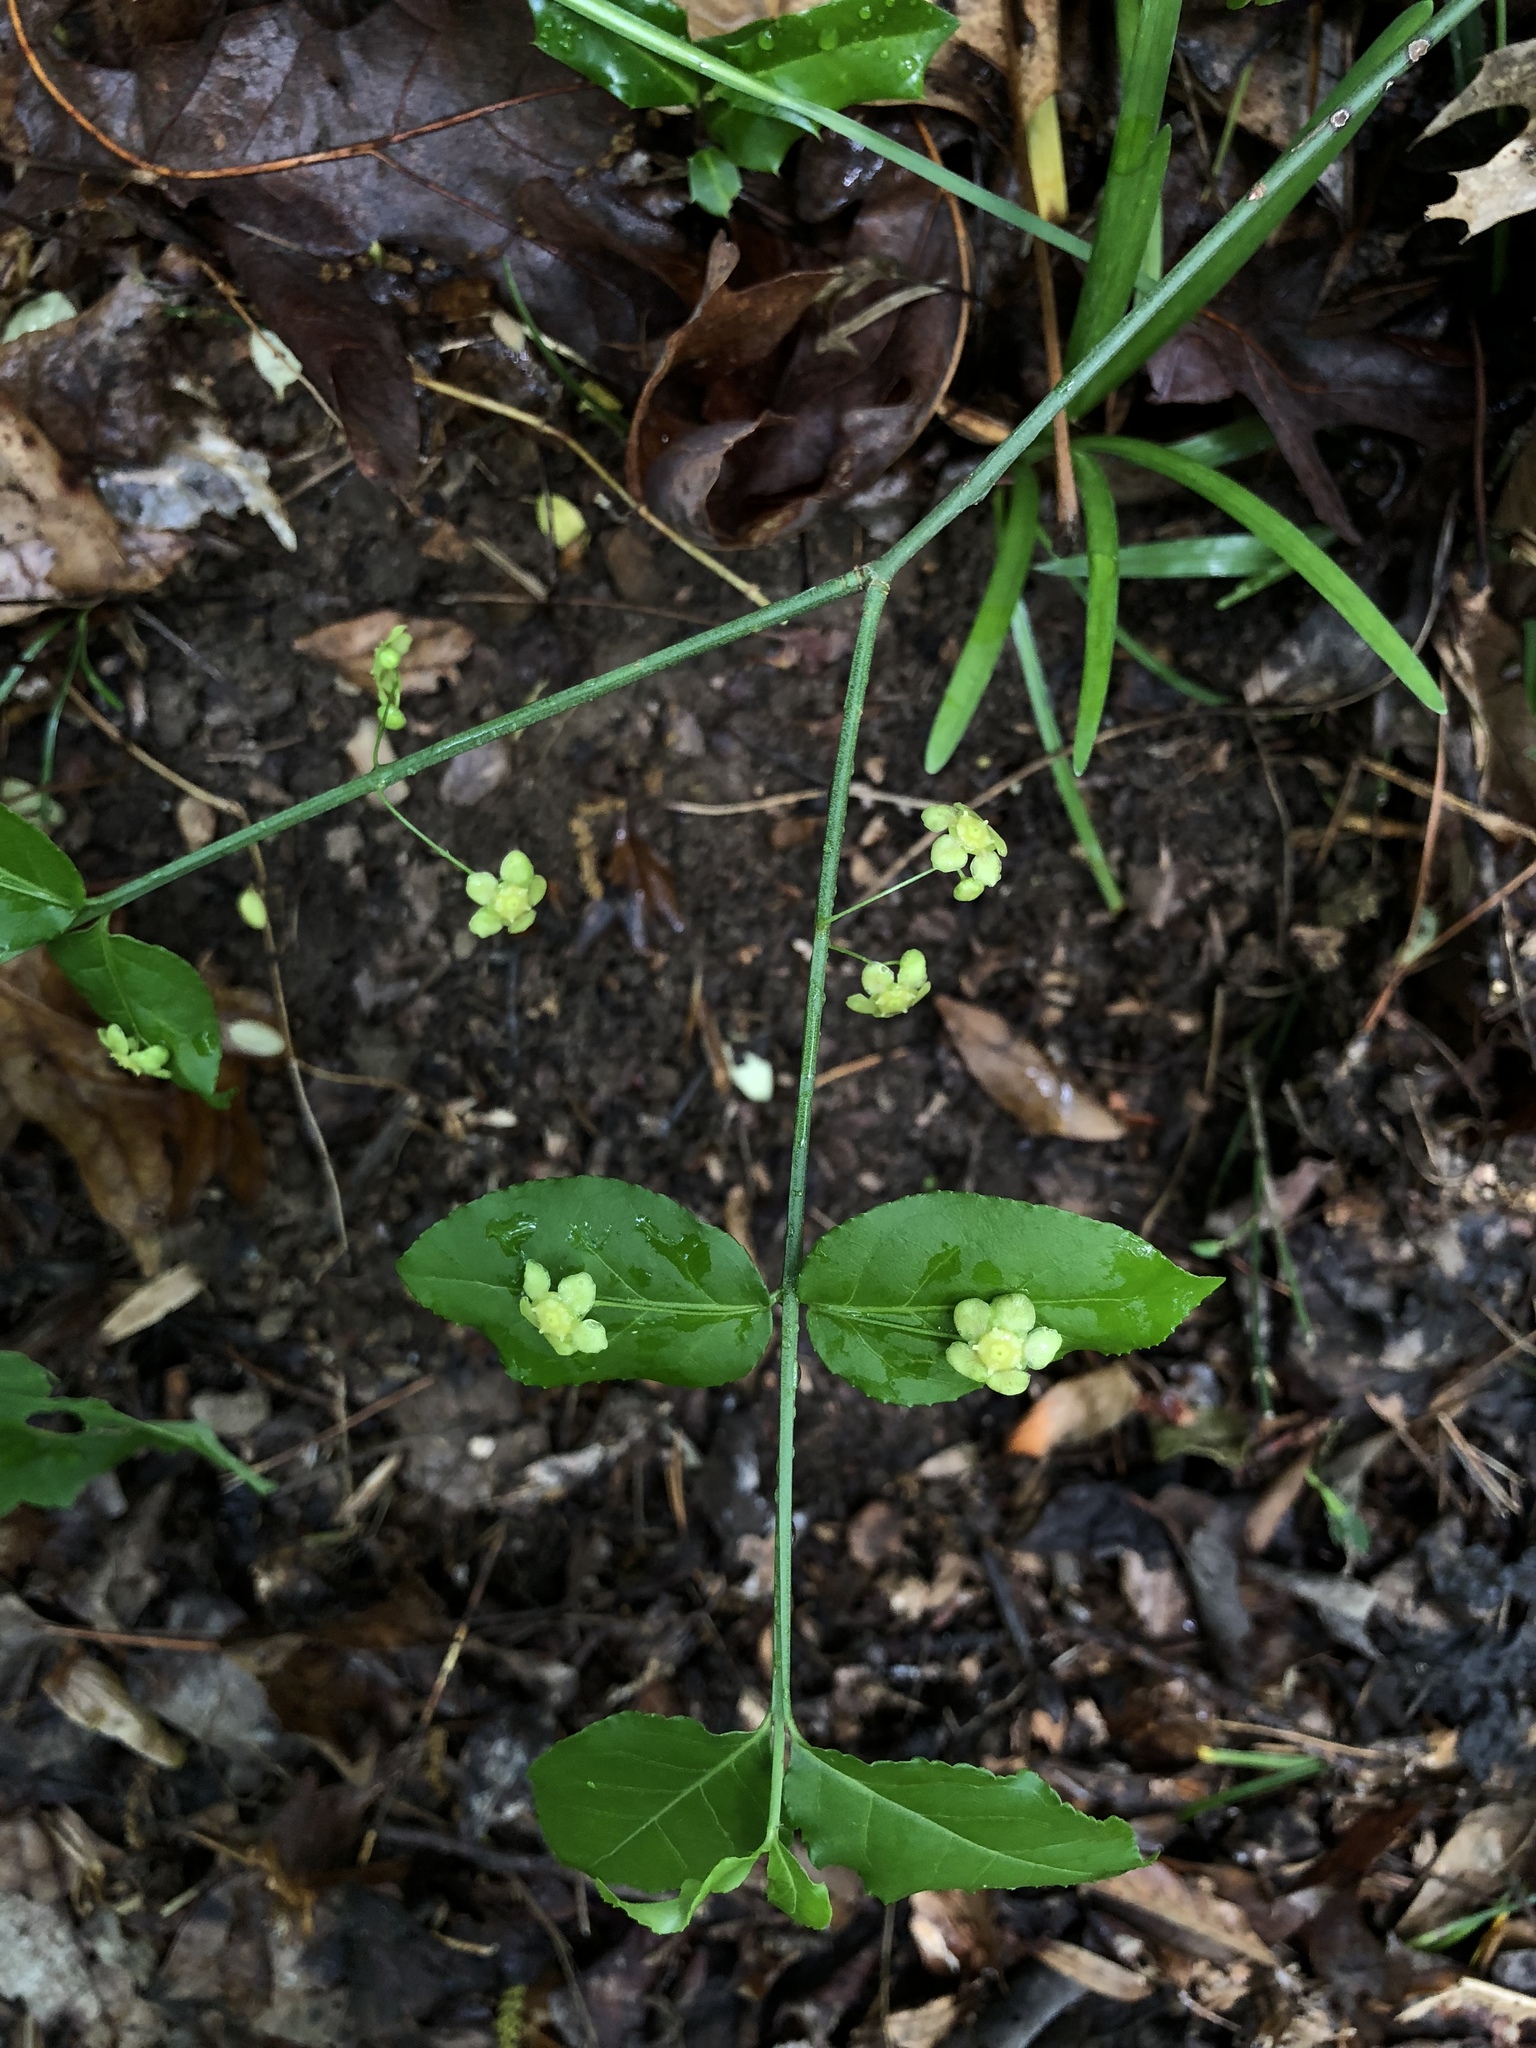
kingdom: Plantae
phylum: Tracheophyta
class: Magnoliopsida
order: Celastrales
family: Celastraceae
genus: Euonymus
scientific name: Euonymus americanus
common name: Bursting-heart
